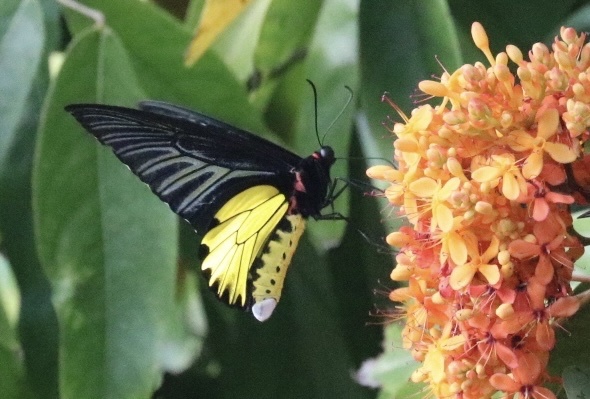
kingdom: Animalia
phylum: Arthropoda
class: Insecta
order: Lepidoptera
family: Papilionidae
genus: Troides
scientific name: Troides helena
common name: Common birdwing
